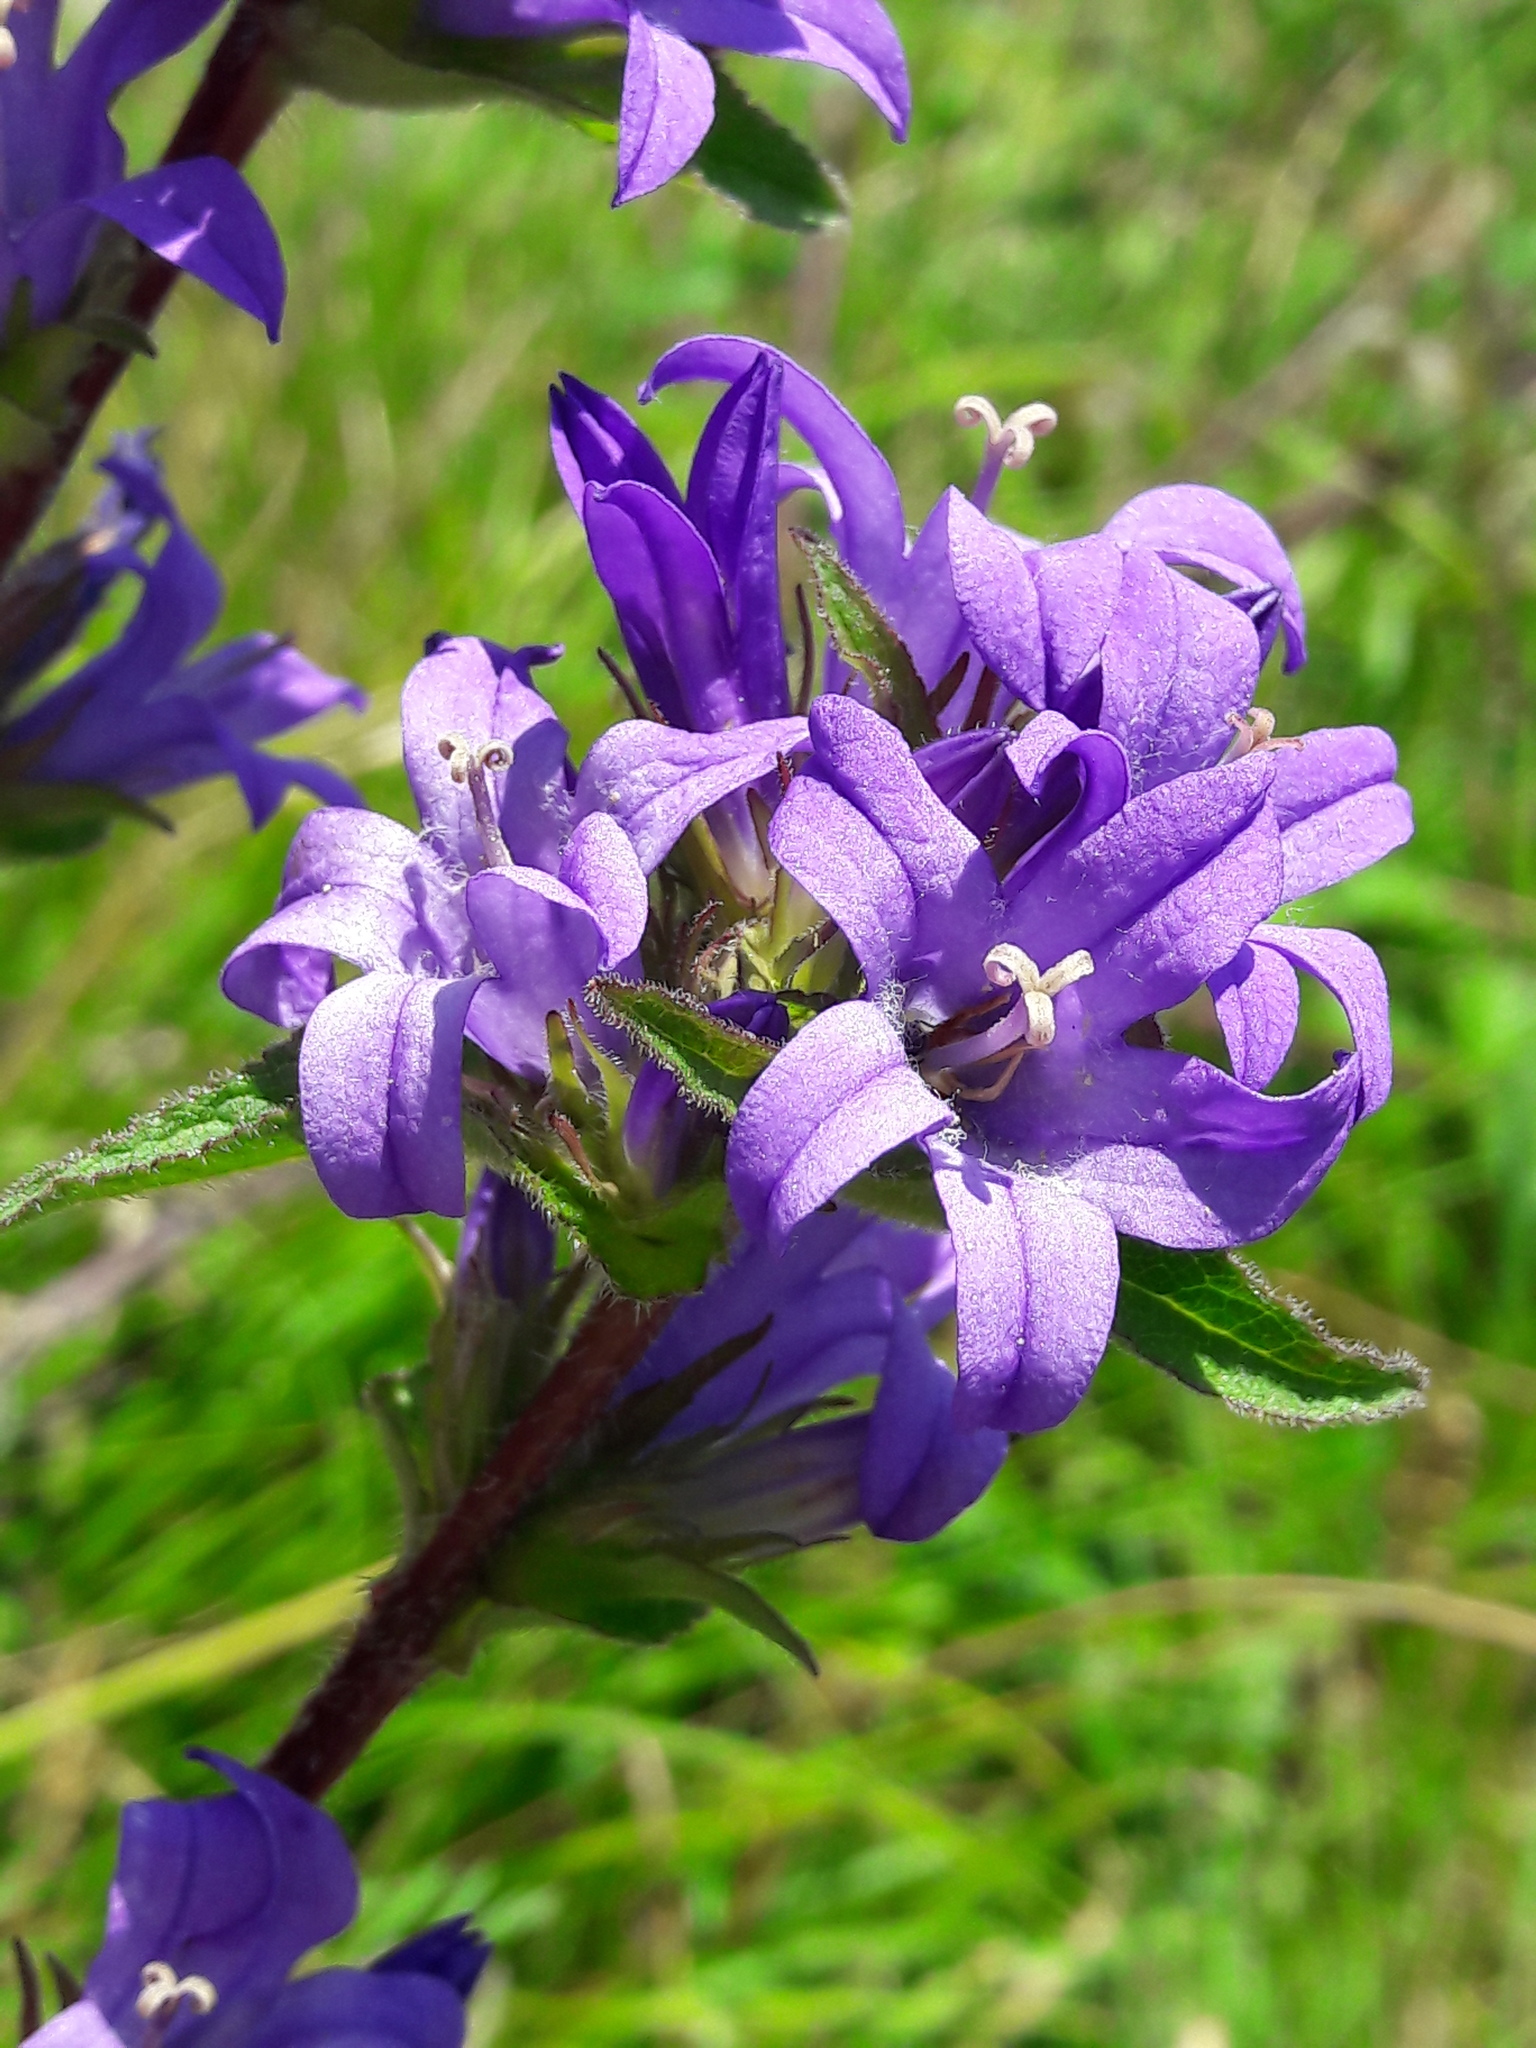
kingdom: Plantae
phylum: Tracheophyta
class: Magnoliopsida
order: Asterales
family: Campanulaceae
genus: Campanula
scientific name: Campanula glomerata
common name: Clustered bellflower
